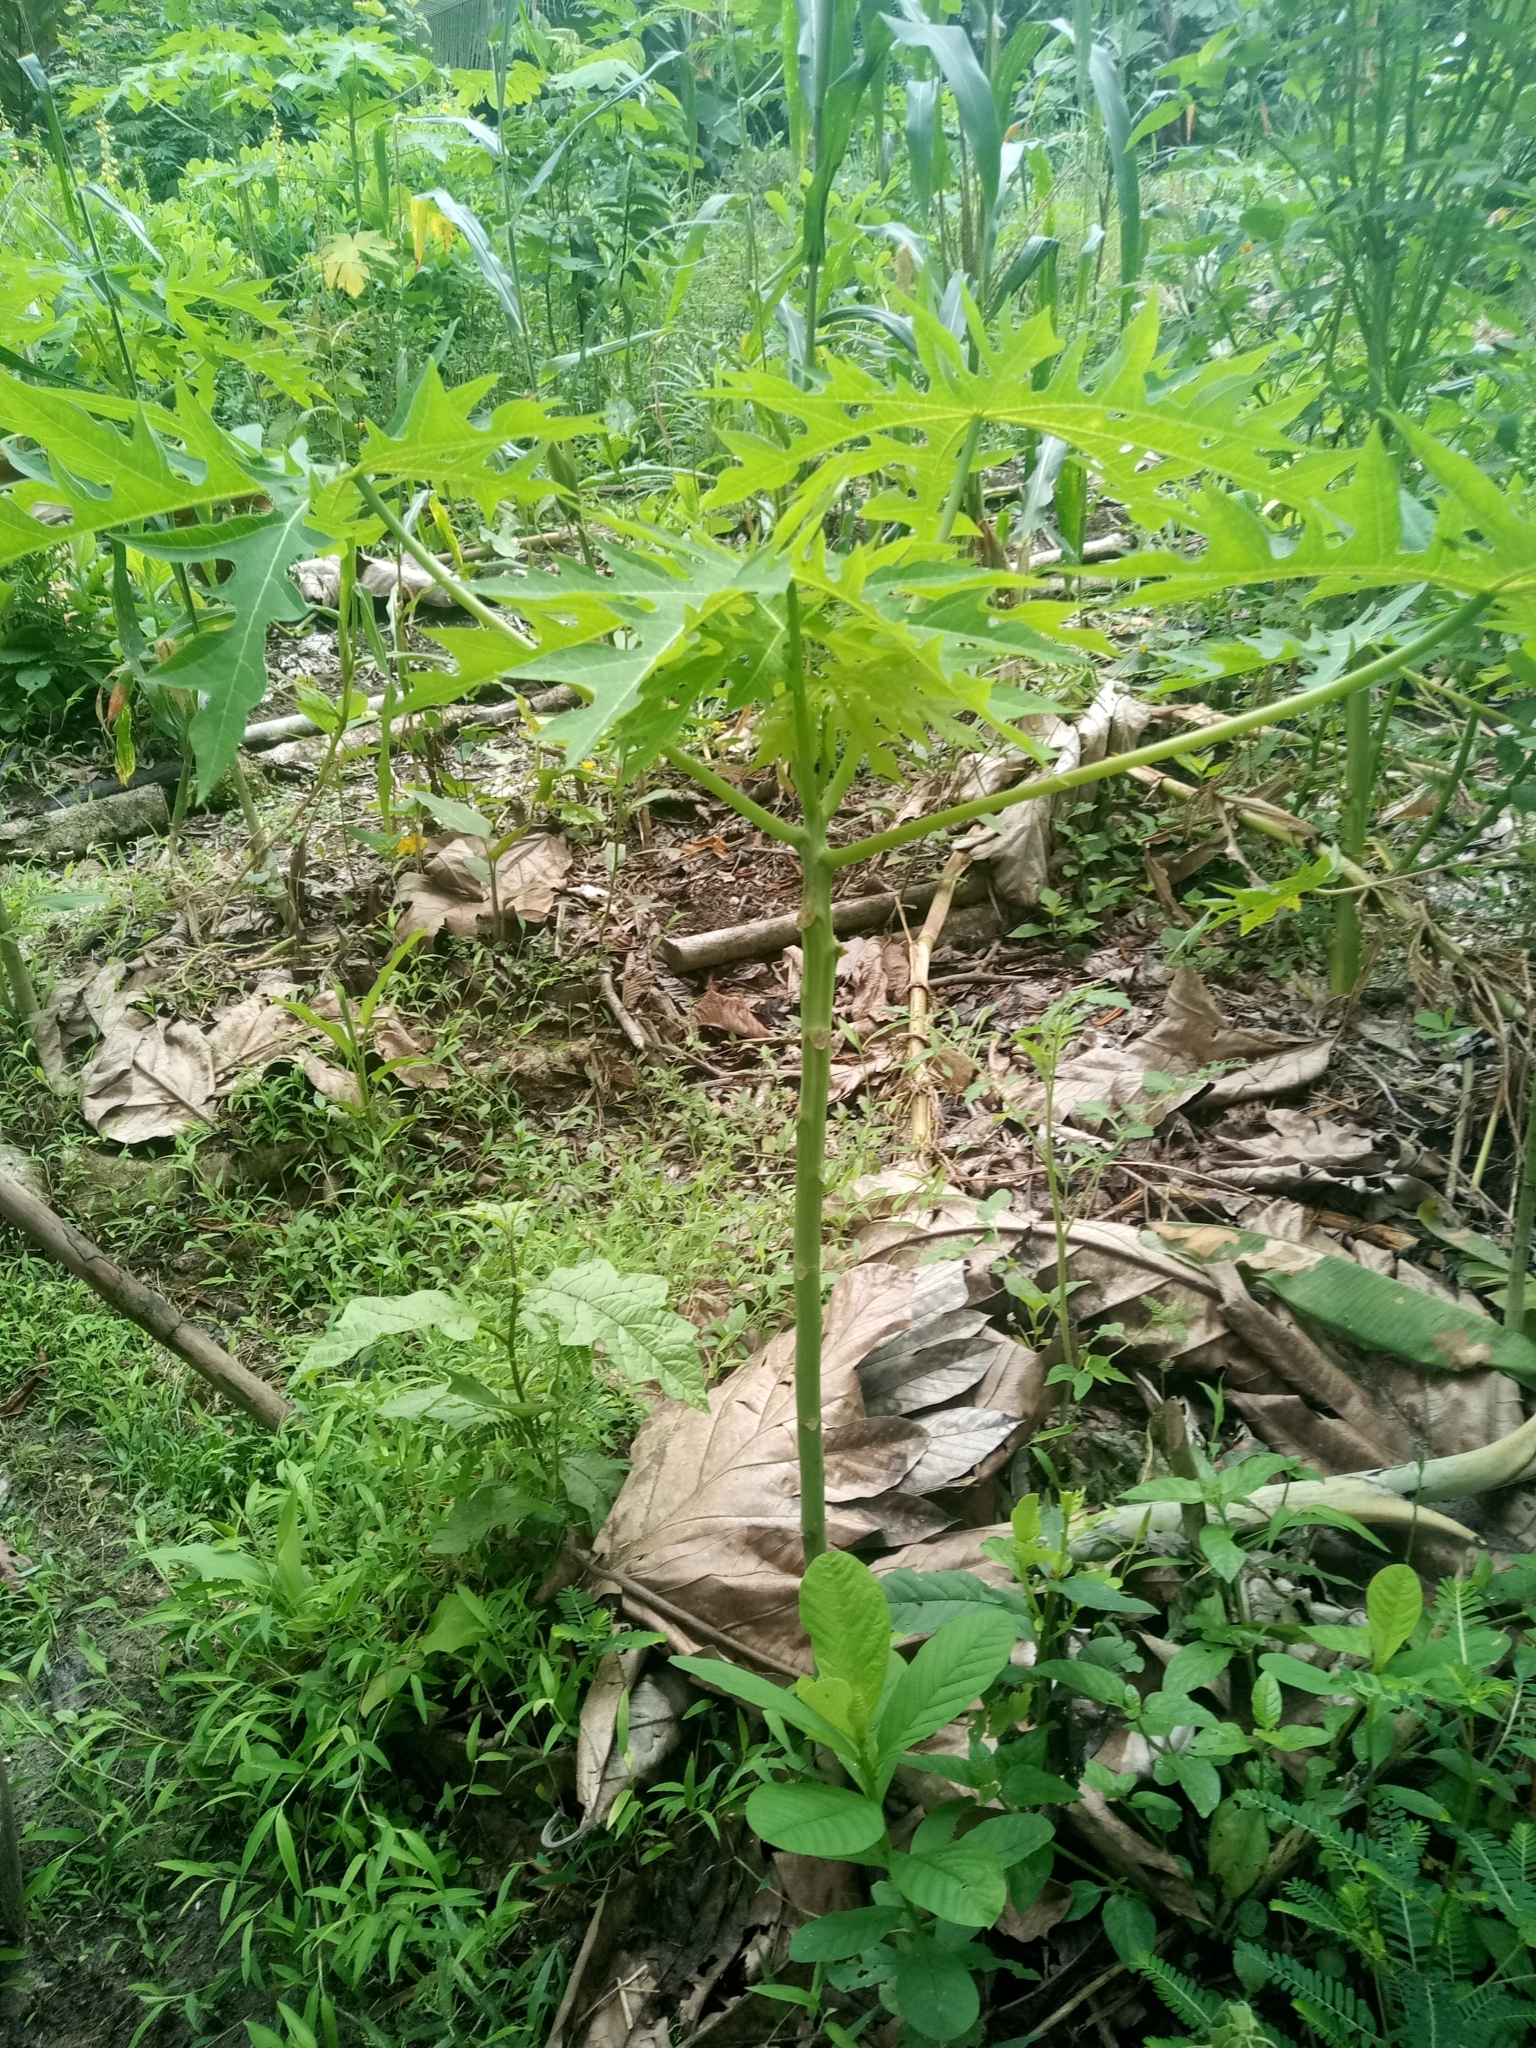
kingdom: Plantae
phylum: Tracheophyta
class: Magnoliopsida
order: Brassicales
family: Caricaceae
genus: Carica
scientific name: Carica papaya
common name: Papaya
